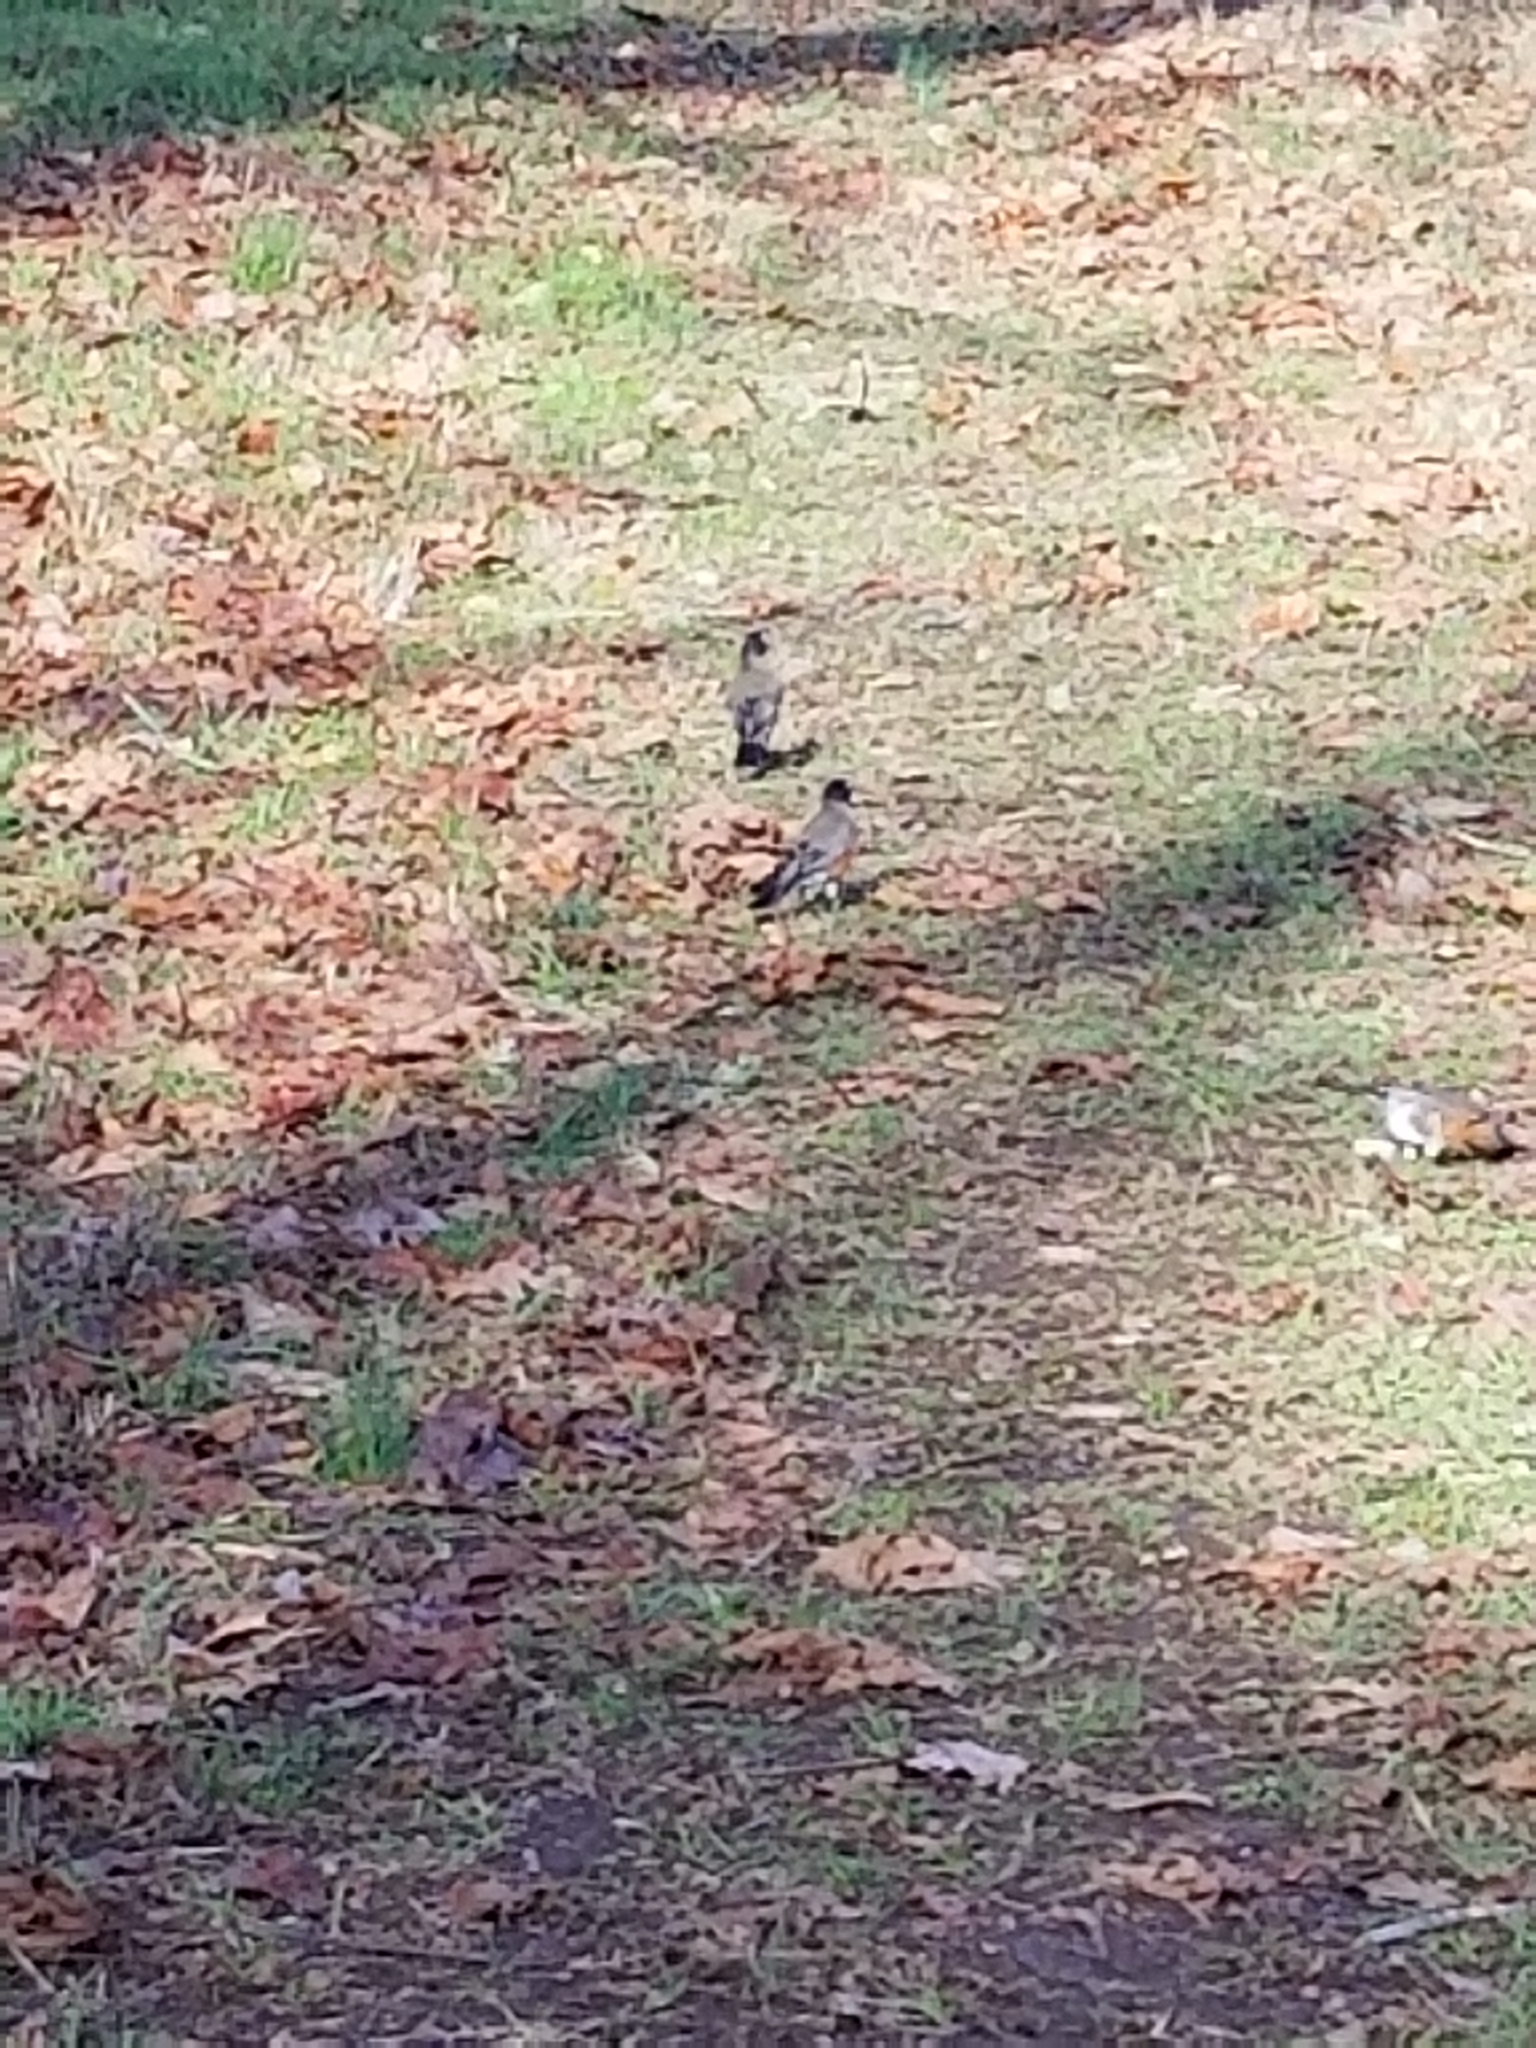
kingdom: Animalia
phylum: Chordata
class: Aves
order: Passeriformes
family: Turdidae
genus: Turdus
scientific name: Turdus migratorius
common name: American robin
